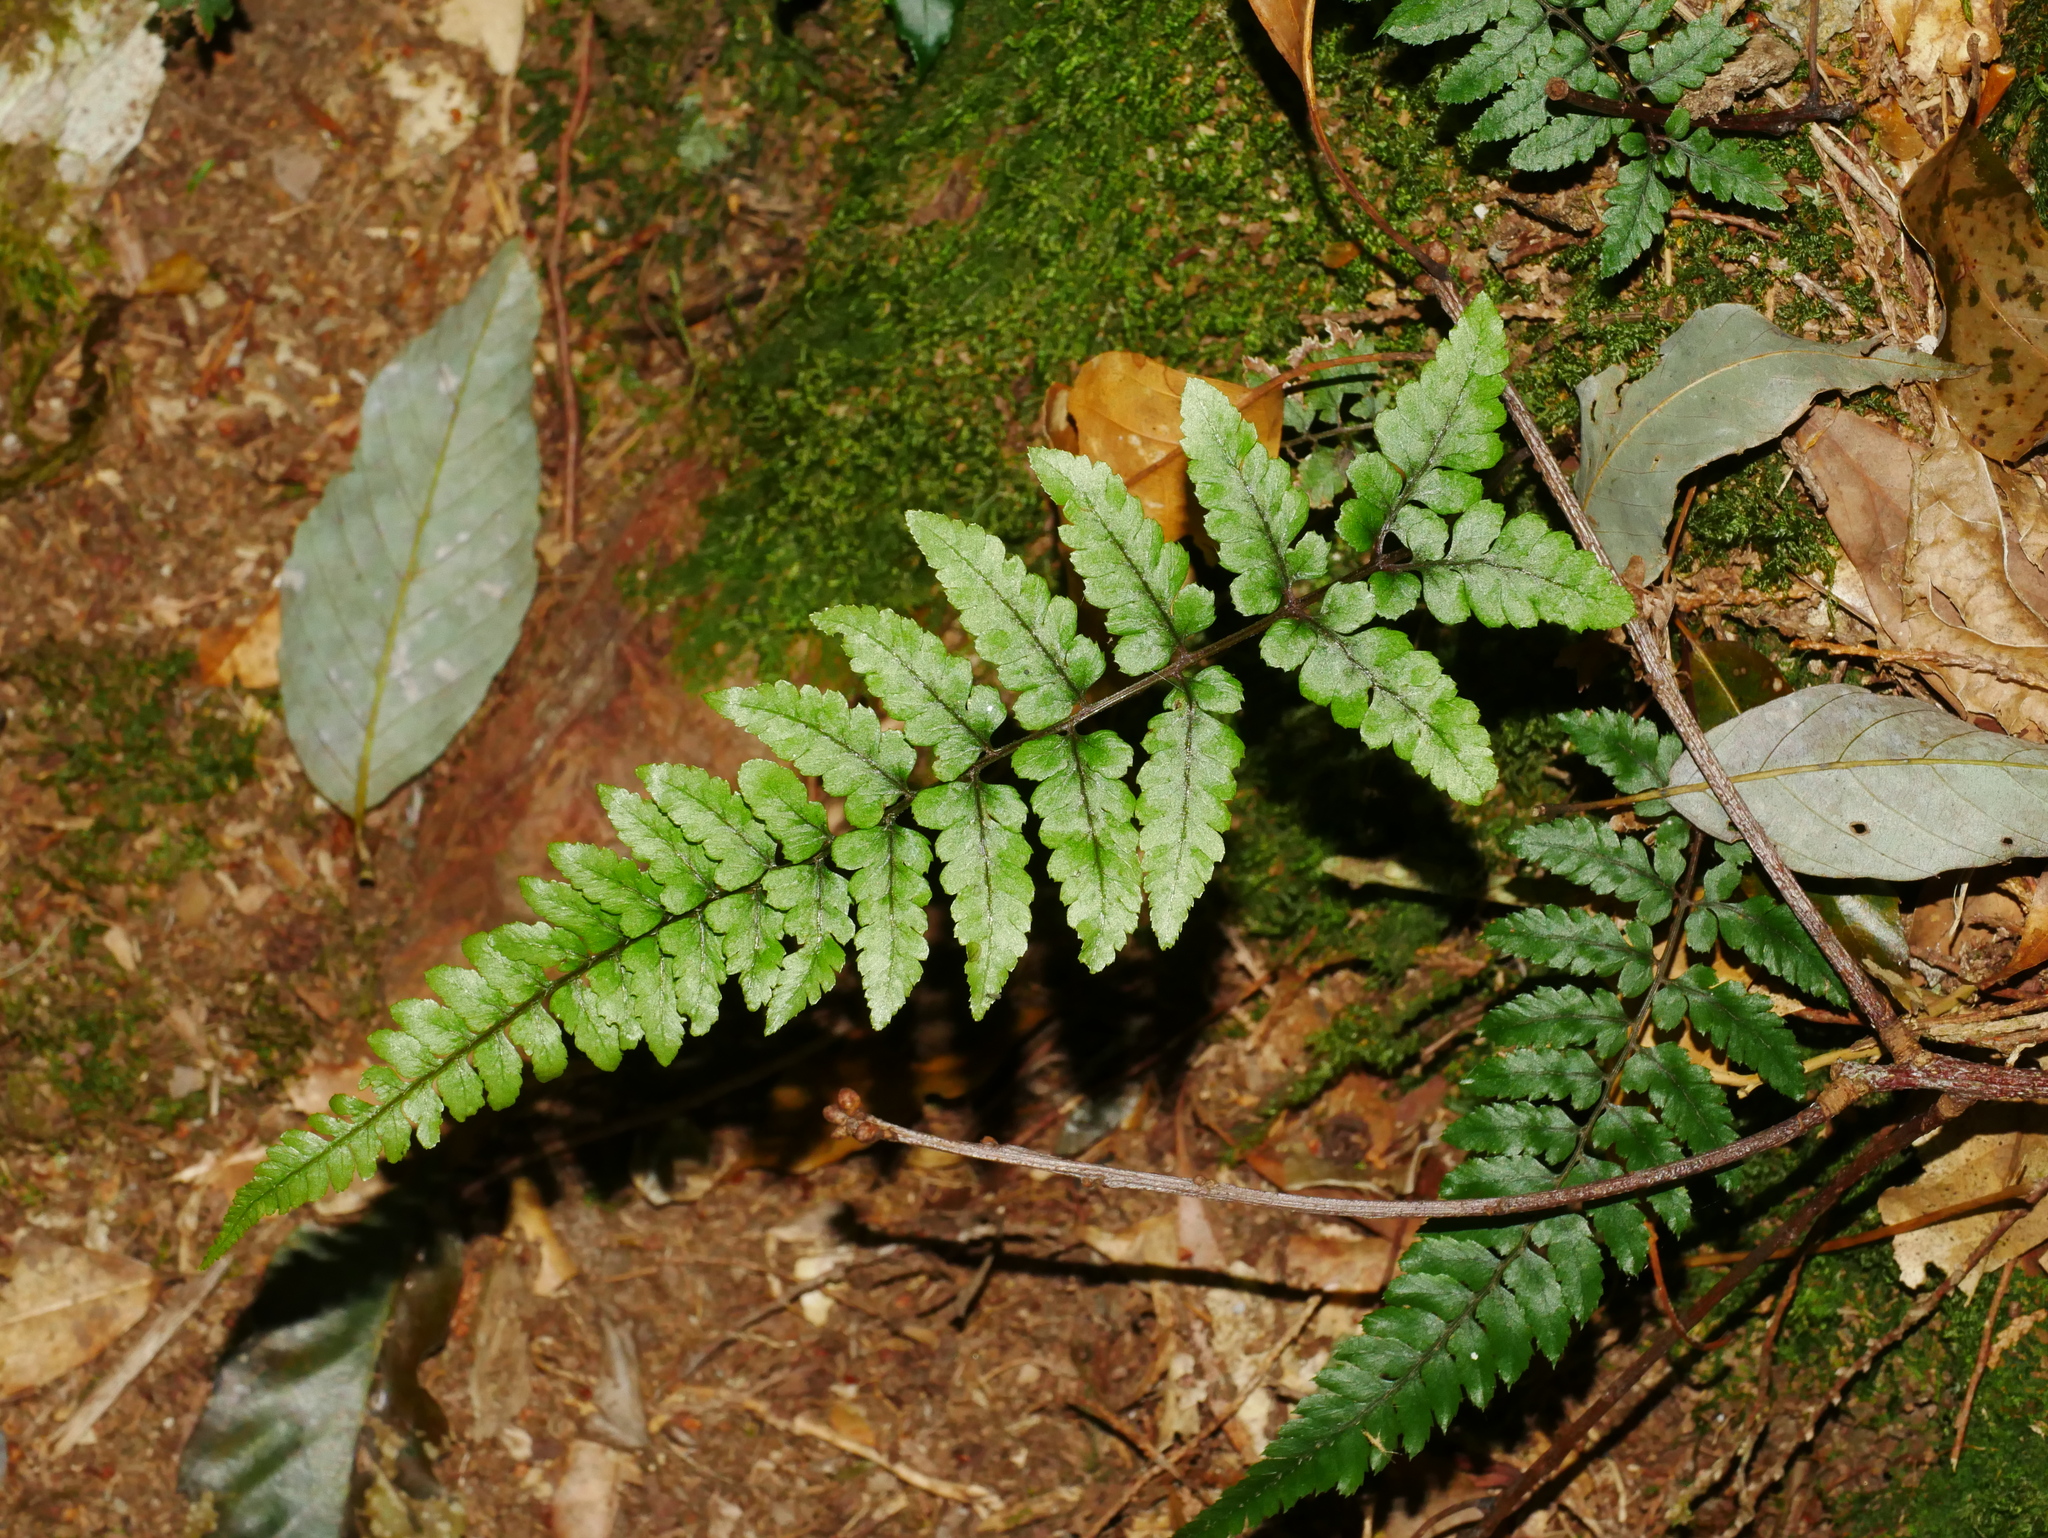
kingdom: Plantae
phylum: Tracheophyta
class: Polypodiopsida
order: Polypodiales
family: Athyriaceae
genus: Athyrium
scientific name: Athyrium leiopodum
